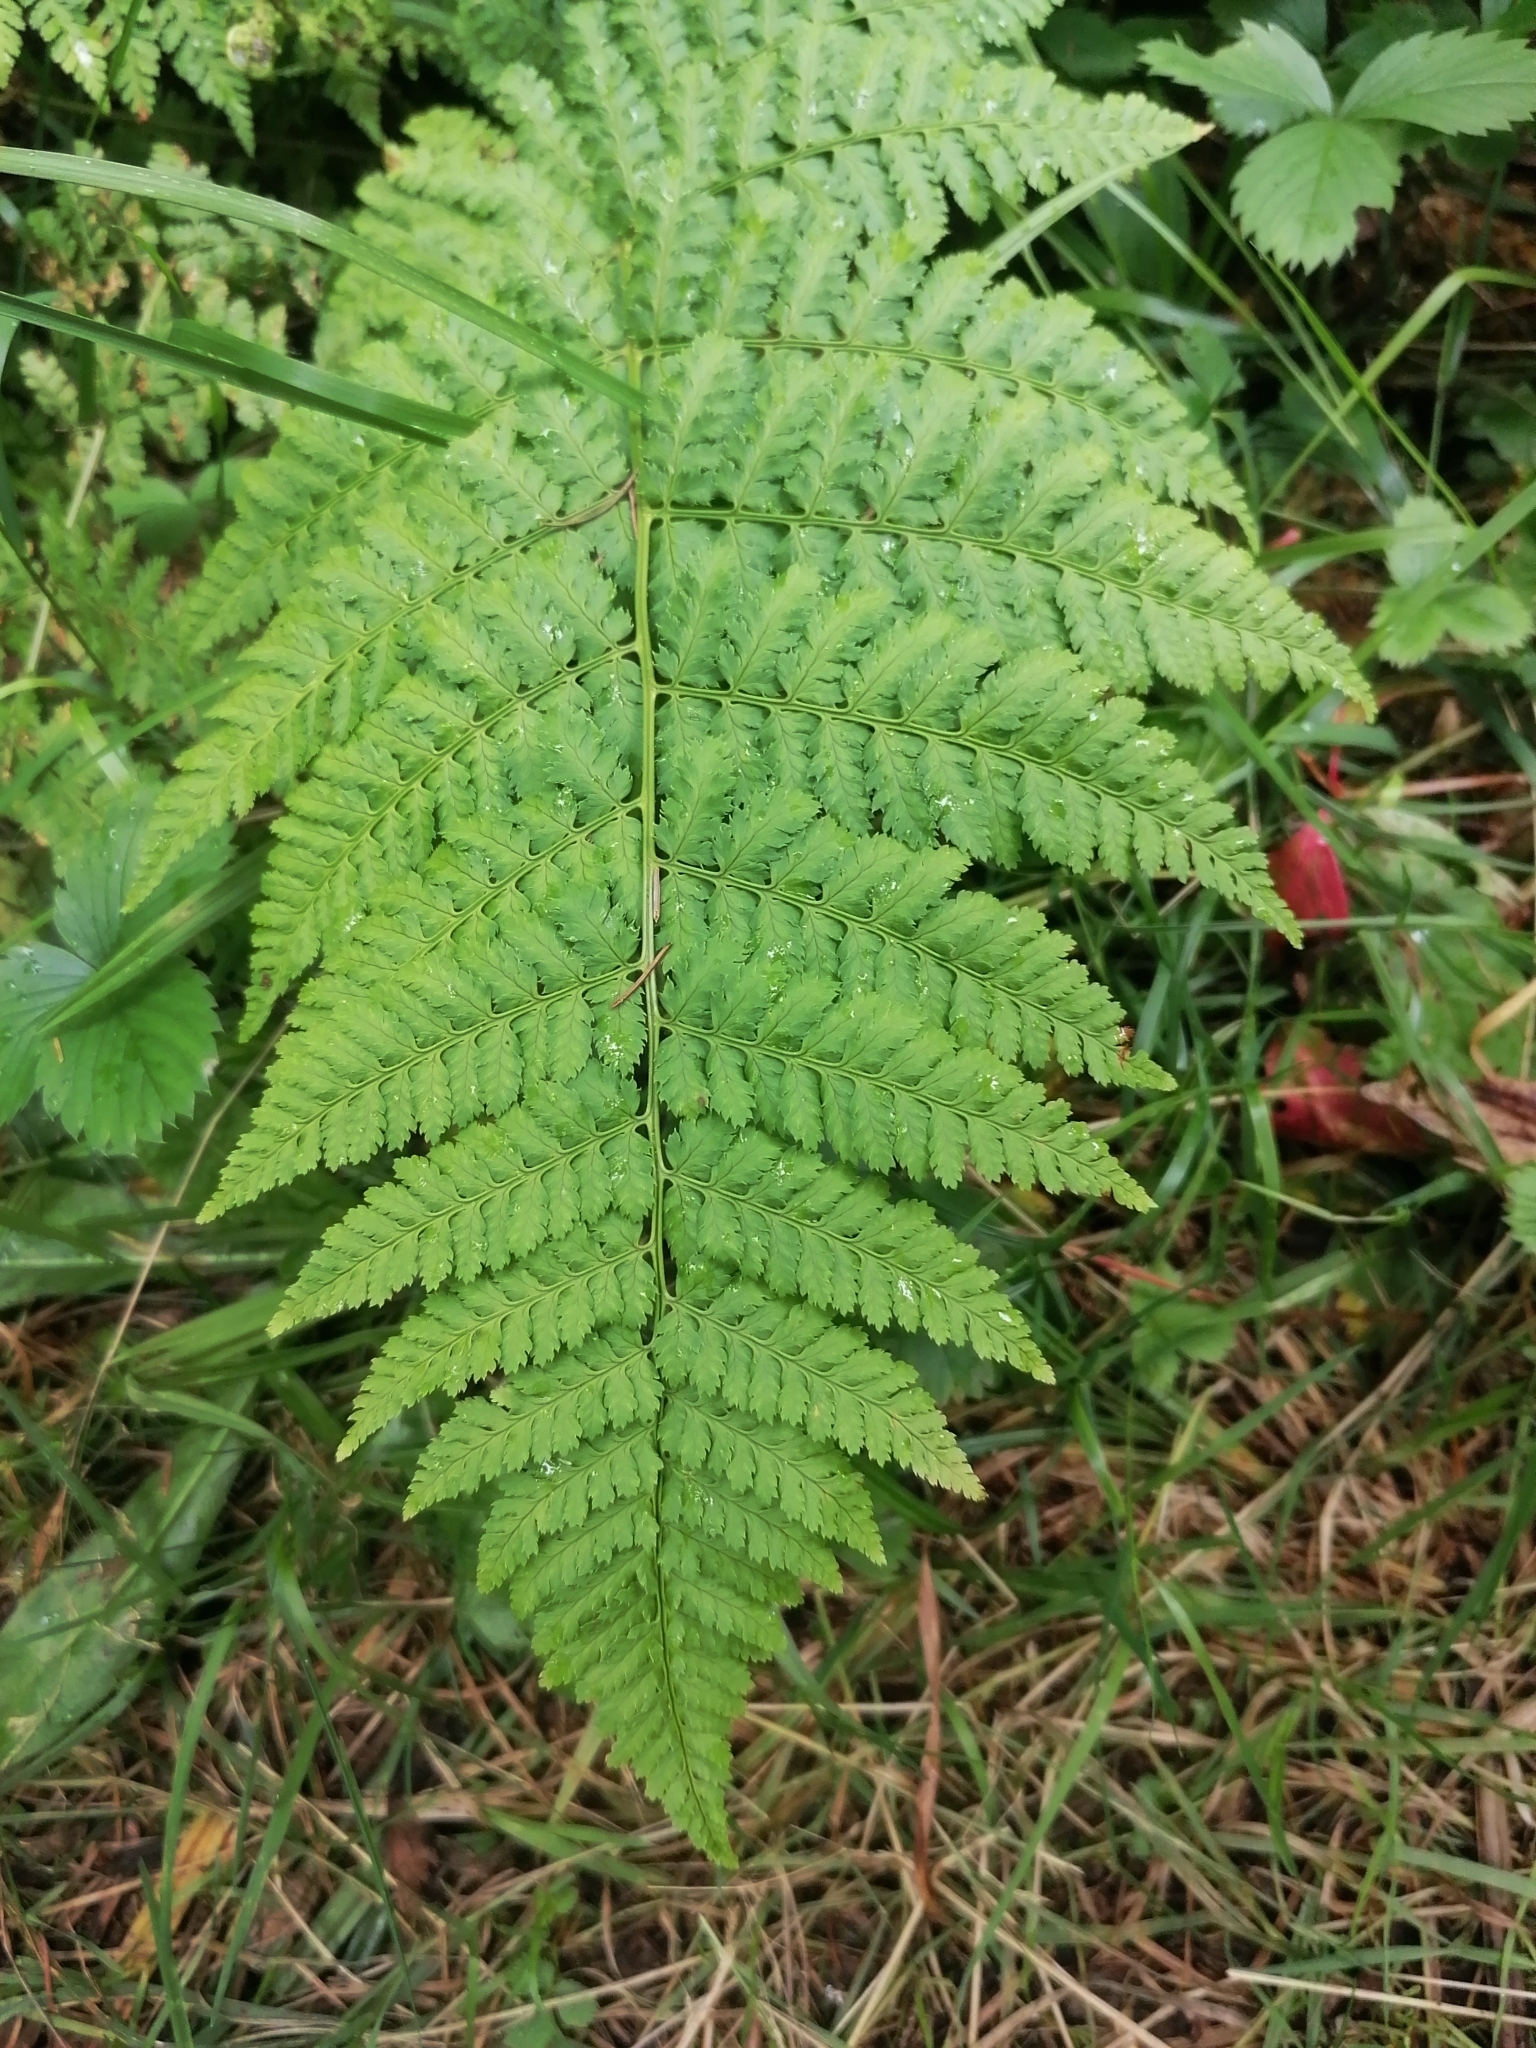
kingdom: Plantae
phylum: Tracheophyta
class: Polypodiopsida
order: Polypodiales
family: Dryopteridaceae
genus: Dryopteris
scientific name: Dryopteris intermedia
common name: Evergreen wood fern
